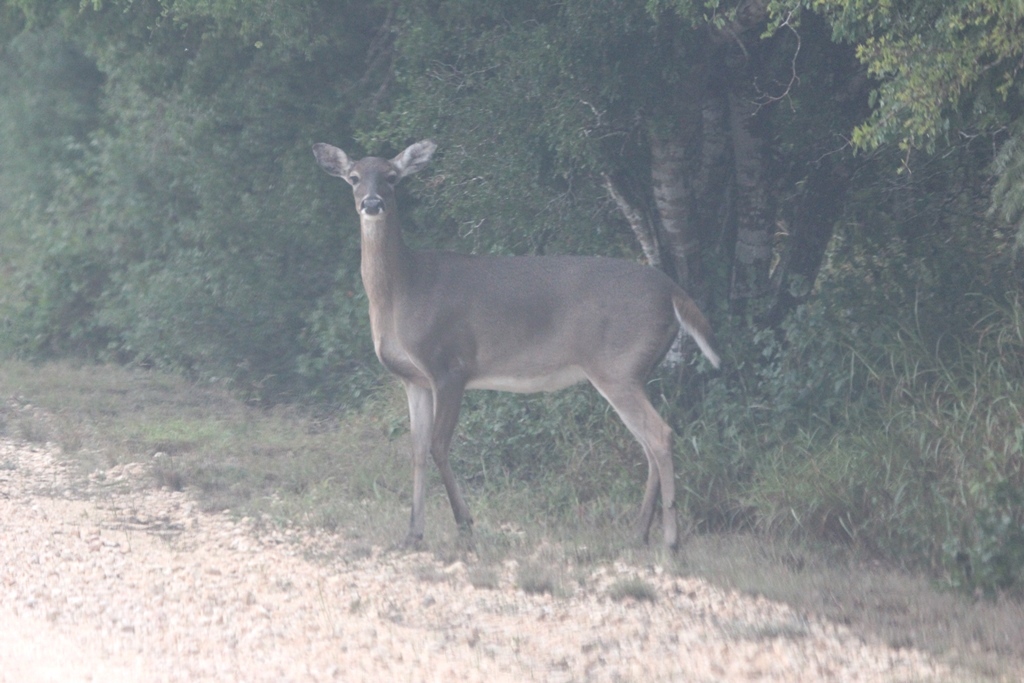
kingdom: Animalia
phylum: Chordata
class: Mammalia
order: Artiodactyla
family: Cervidae
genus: Odocoileus
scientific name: Odocoileus virginianus
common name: White-tailed deer
